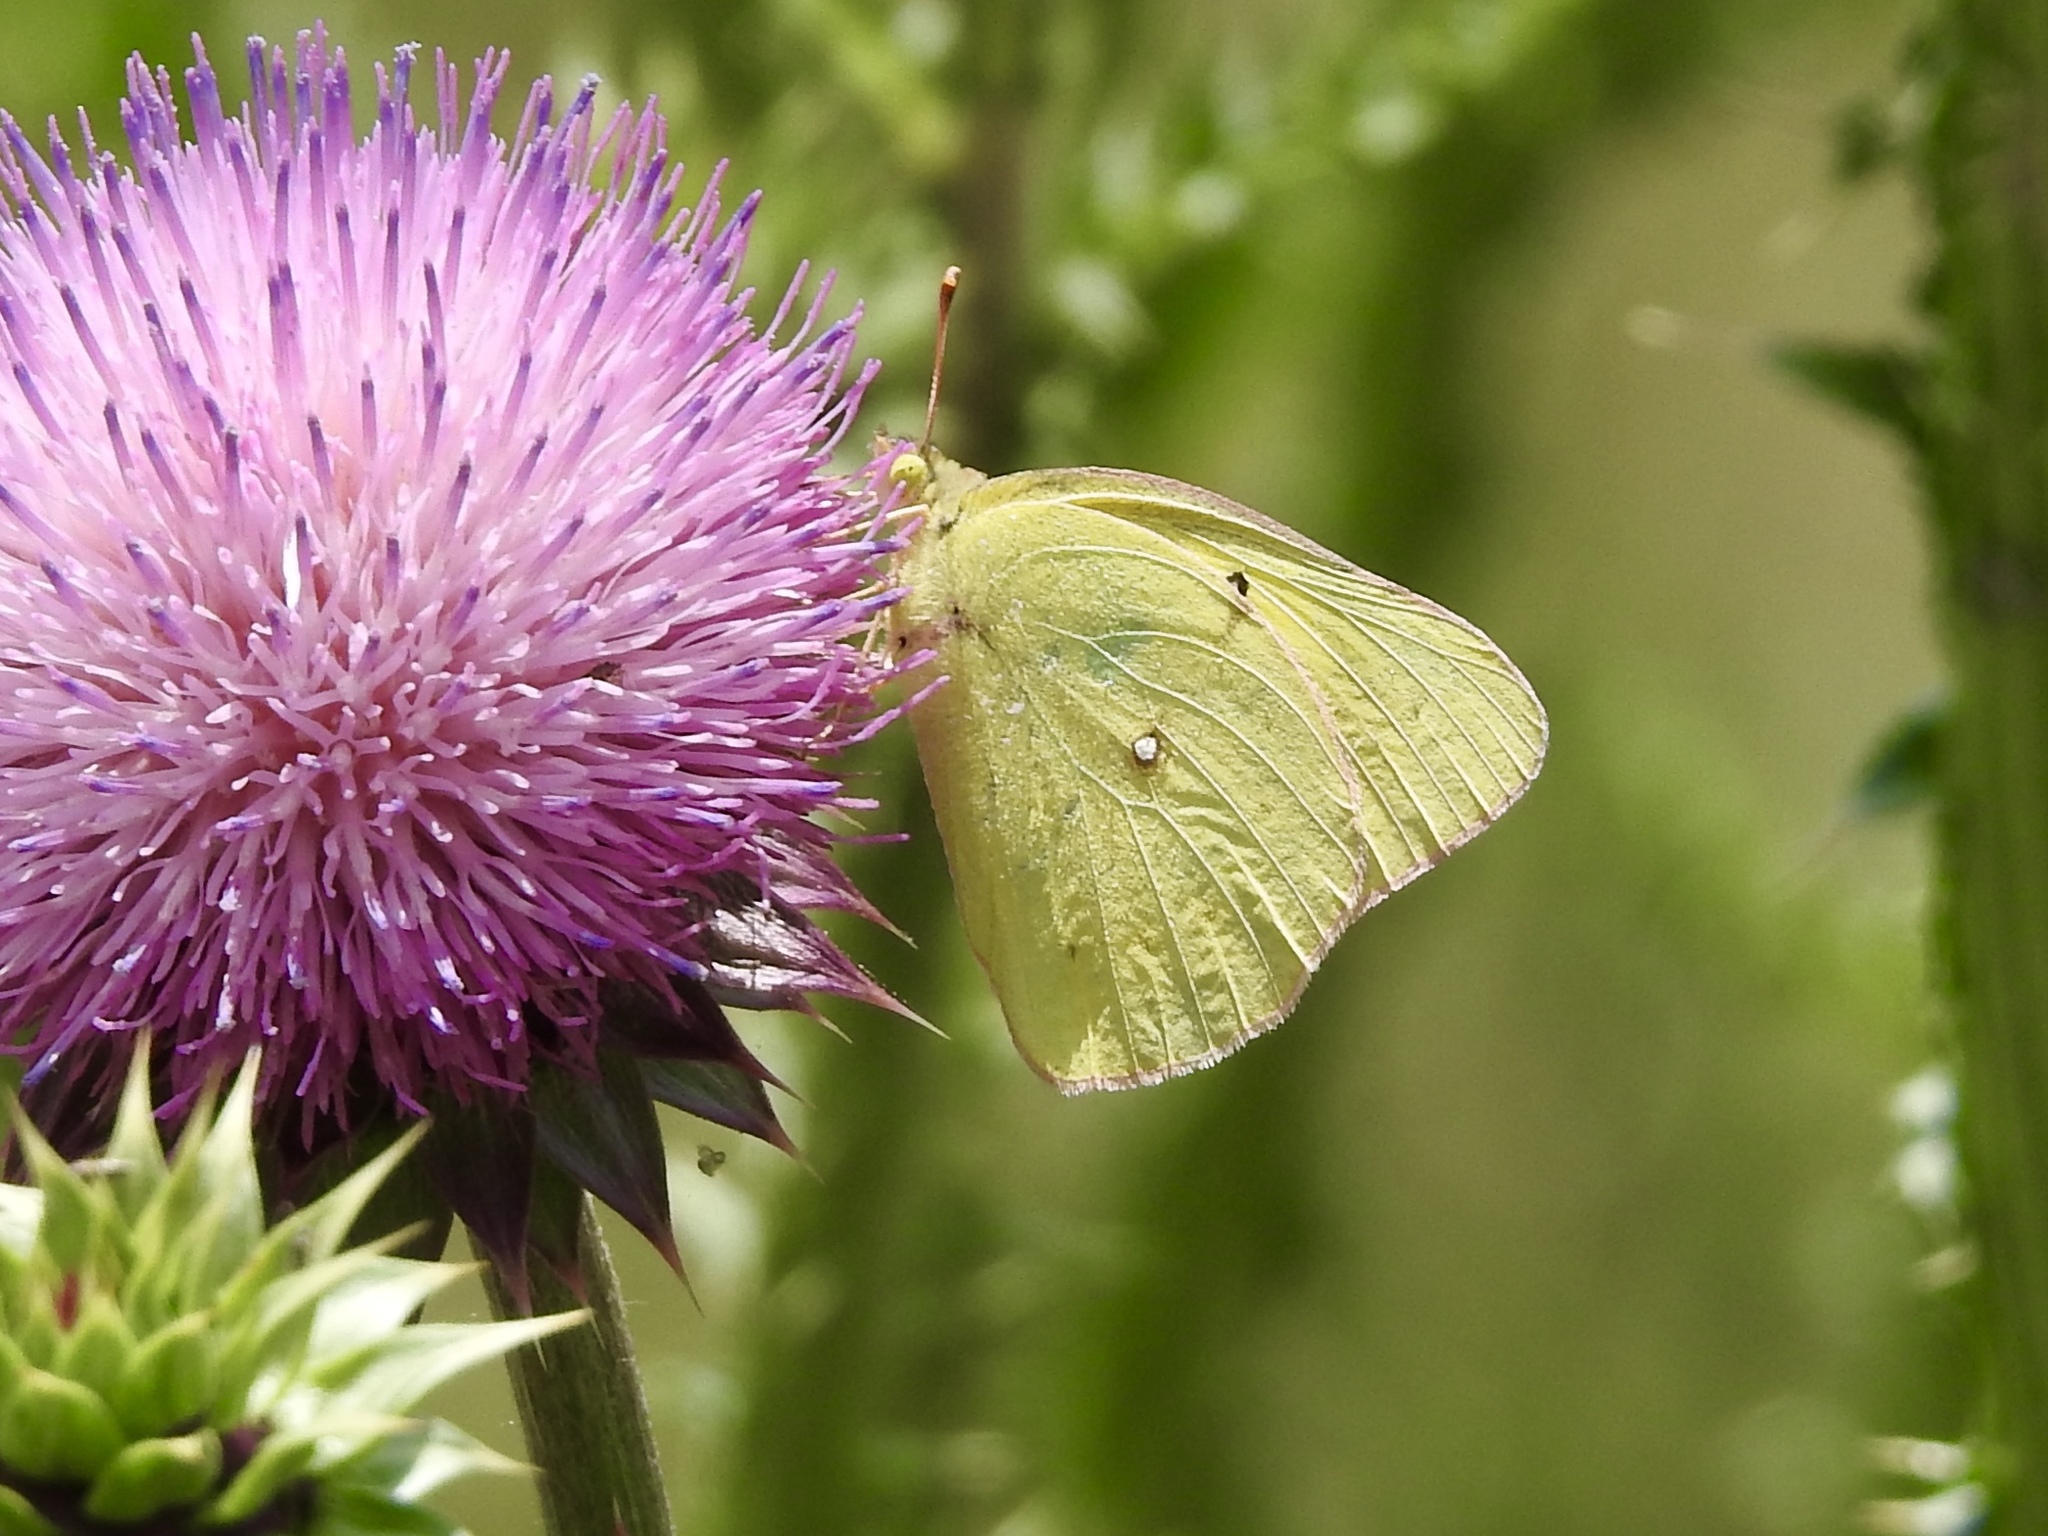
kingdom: Animalia
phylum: Arthropoda
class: Insecta
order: Lepidoptera
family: Pieridae
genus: Colias
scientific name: Colias eurytheme
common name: Alfalfa butterfly
